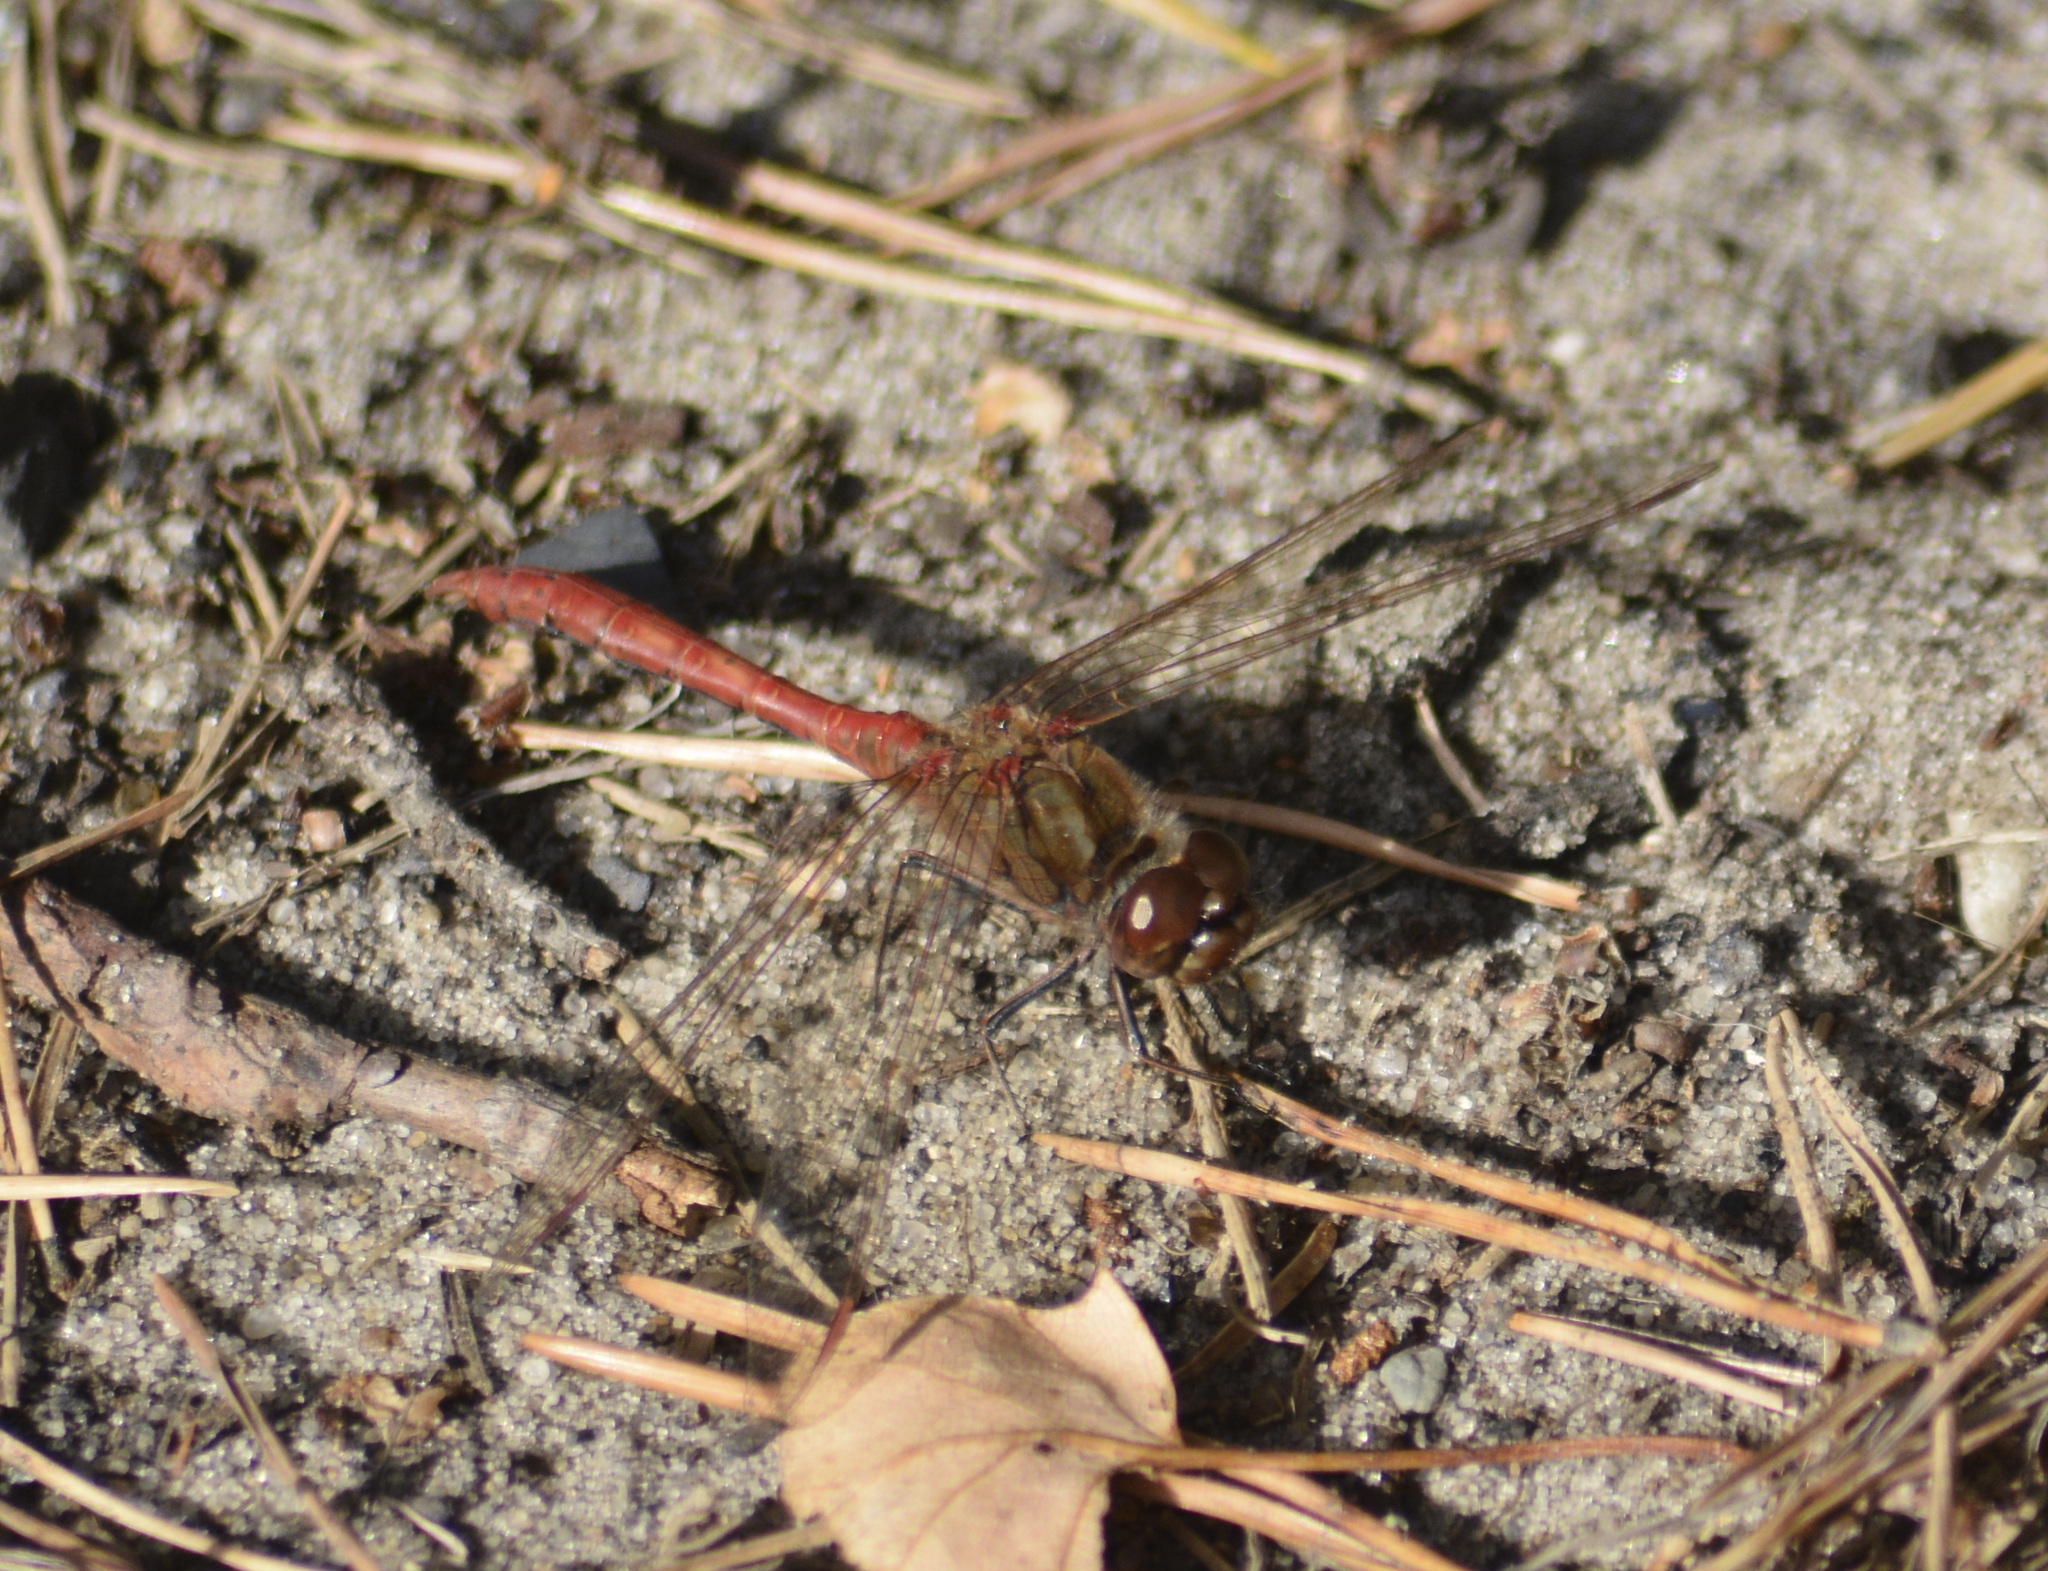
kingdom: Animalia
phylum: Arthropoda
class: Insecta
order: Odonata
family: Libellulidae
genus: Sympetrum
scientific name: Sympetrum vulgatum
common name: Vagrant darter
